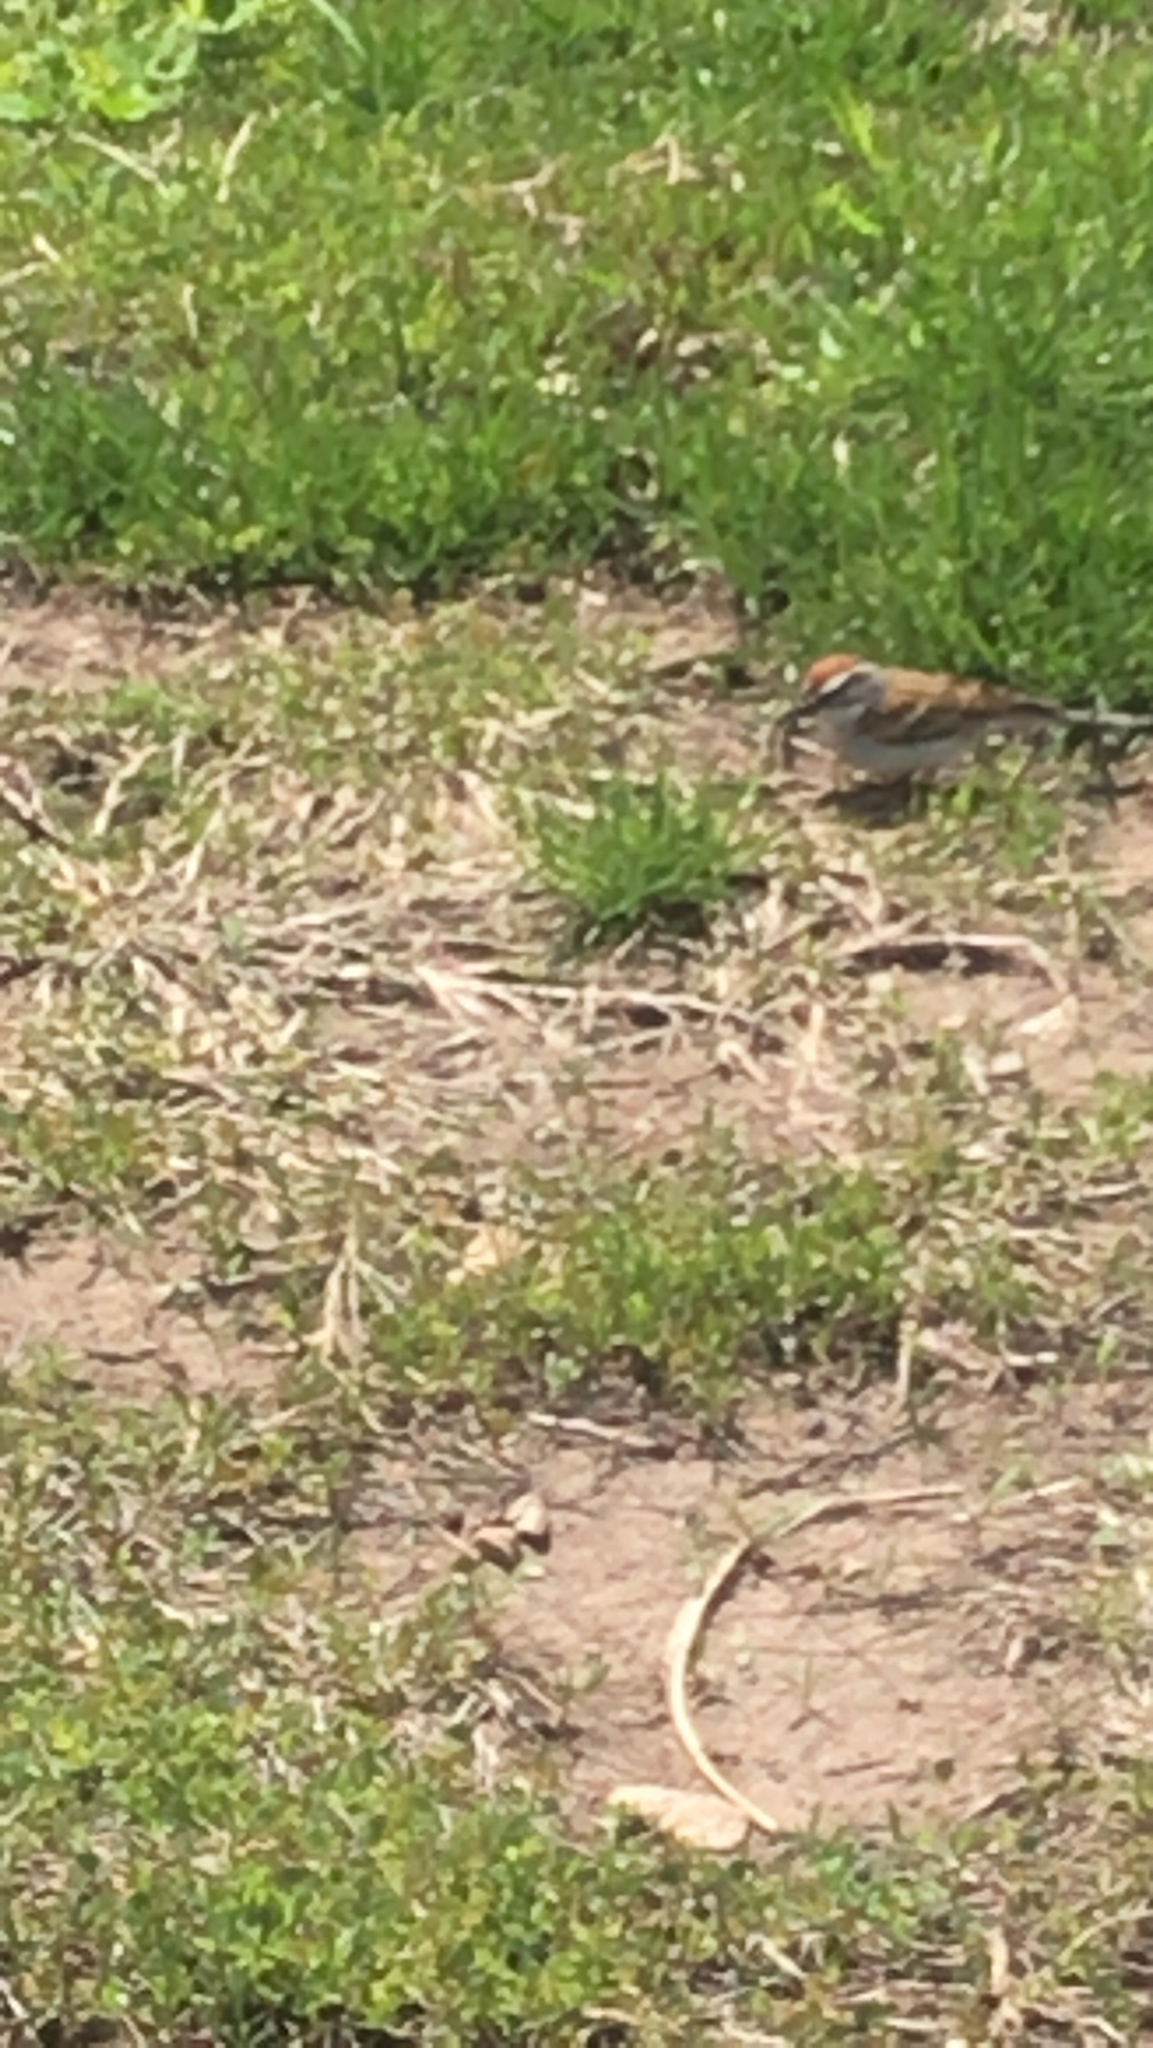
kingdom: Animalia
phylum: Chordata
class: Aves
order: Passeriformes
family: Passerellidae
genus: Spizella
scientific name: Spizella passerina
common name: Chipping sparrow
